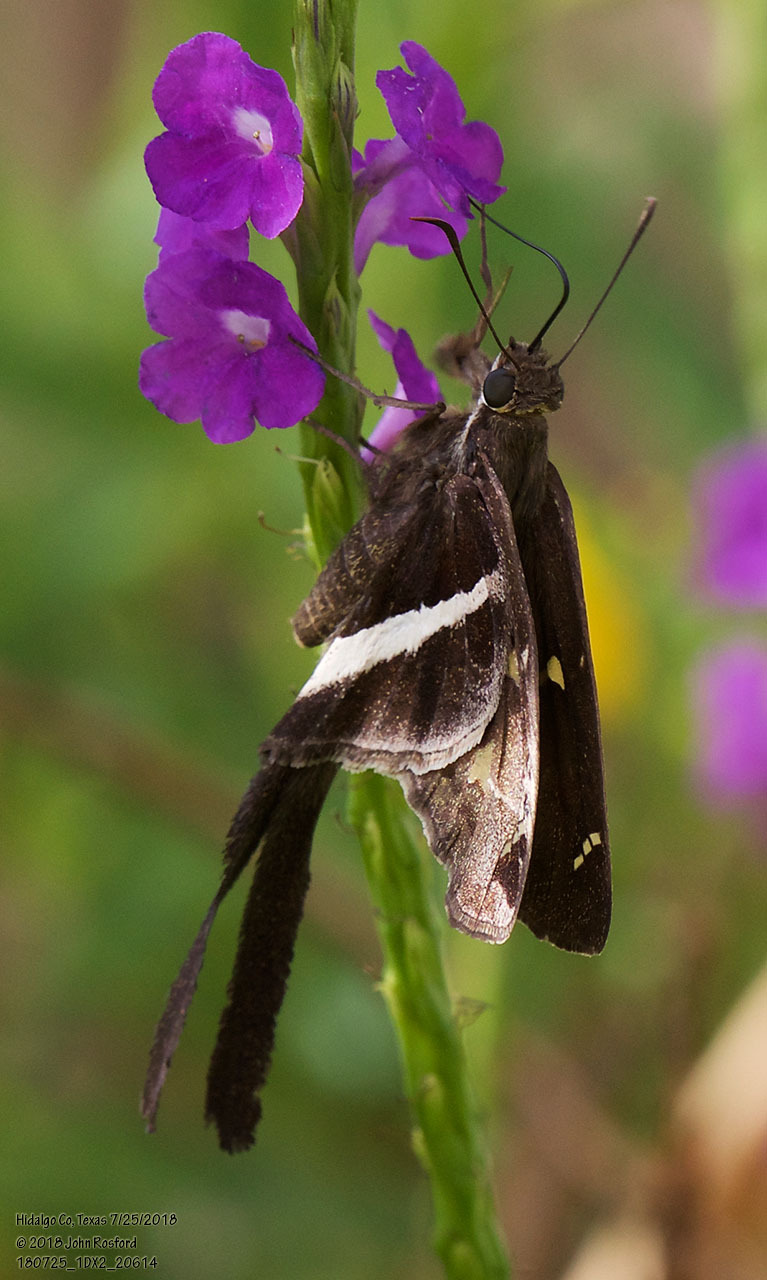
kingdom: Animalia
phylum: Arthropoda
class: Insecta
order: Lepidoptera
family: Hesperiidae
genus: Chioides
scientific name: Chioides catillus
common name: Silverbanded skipper
